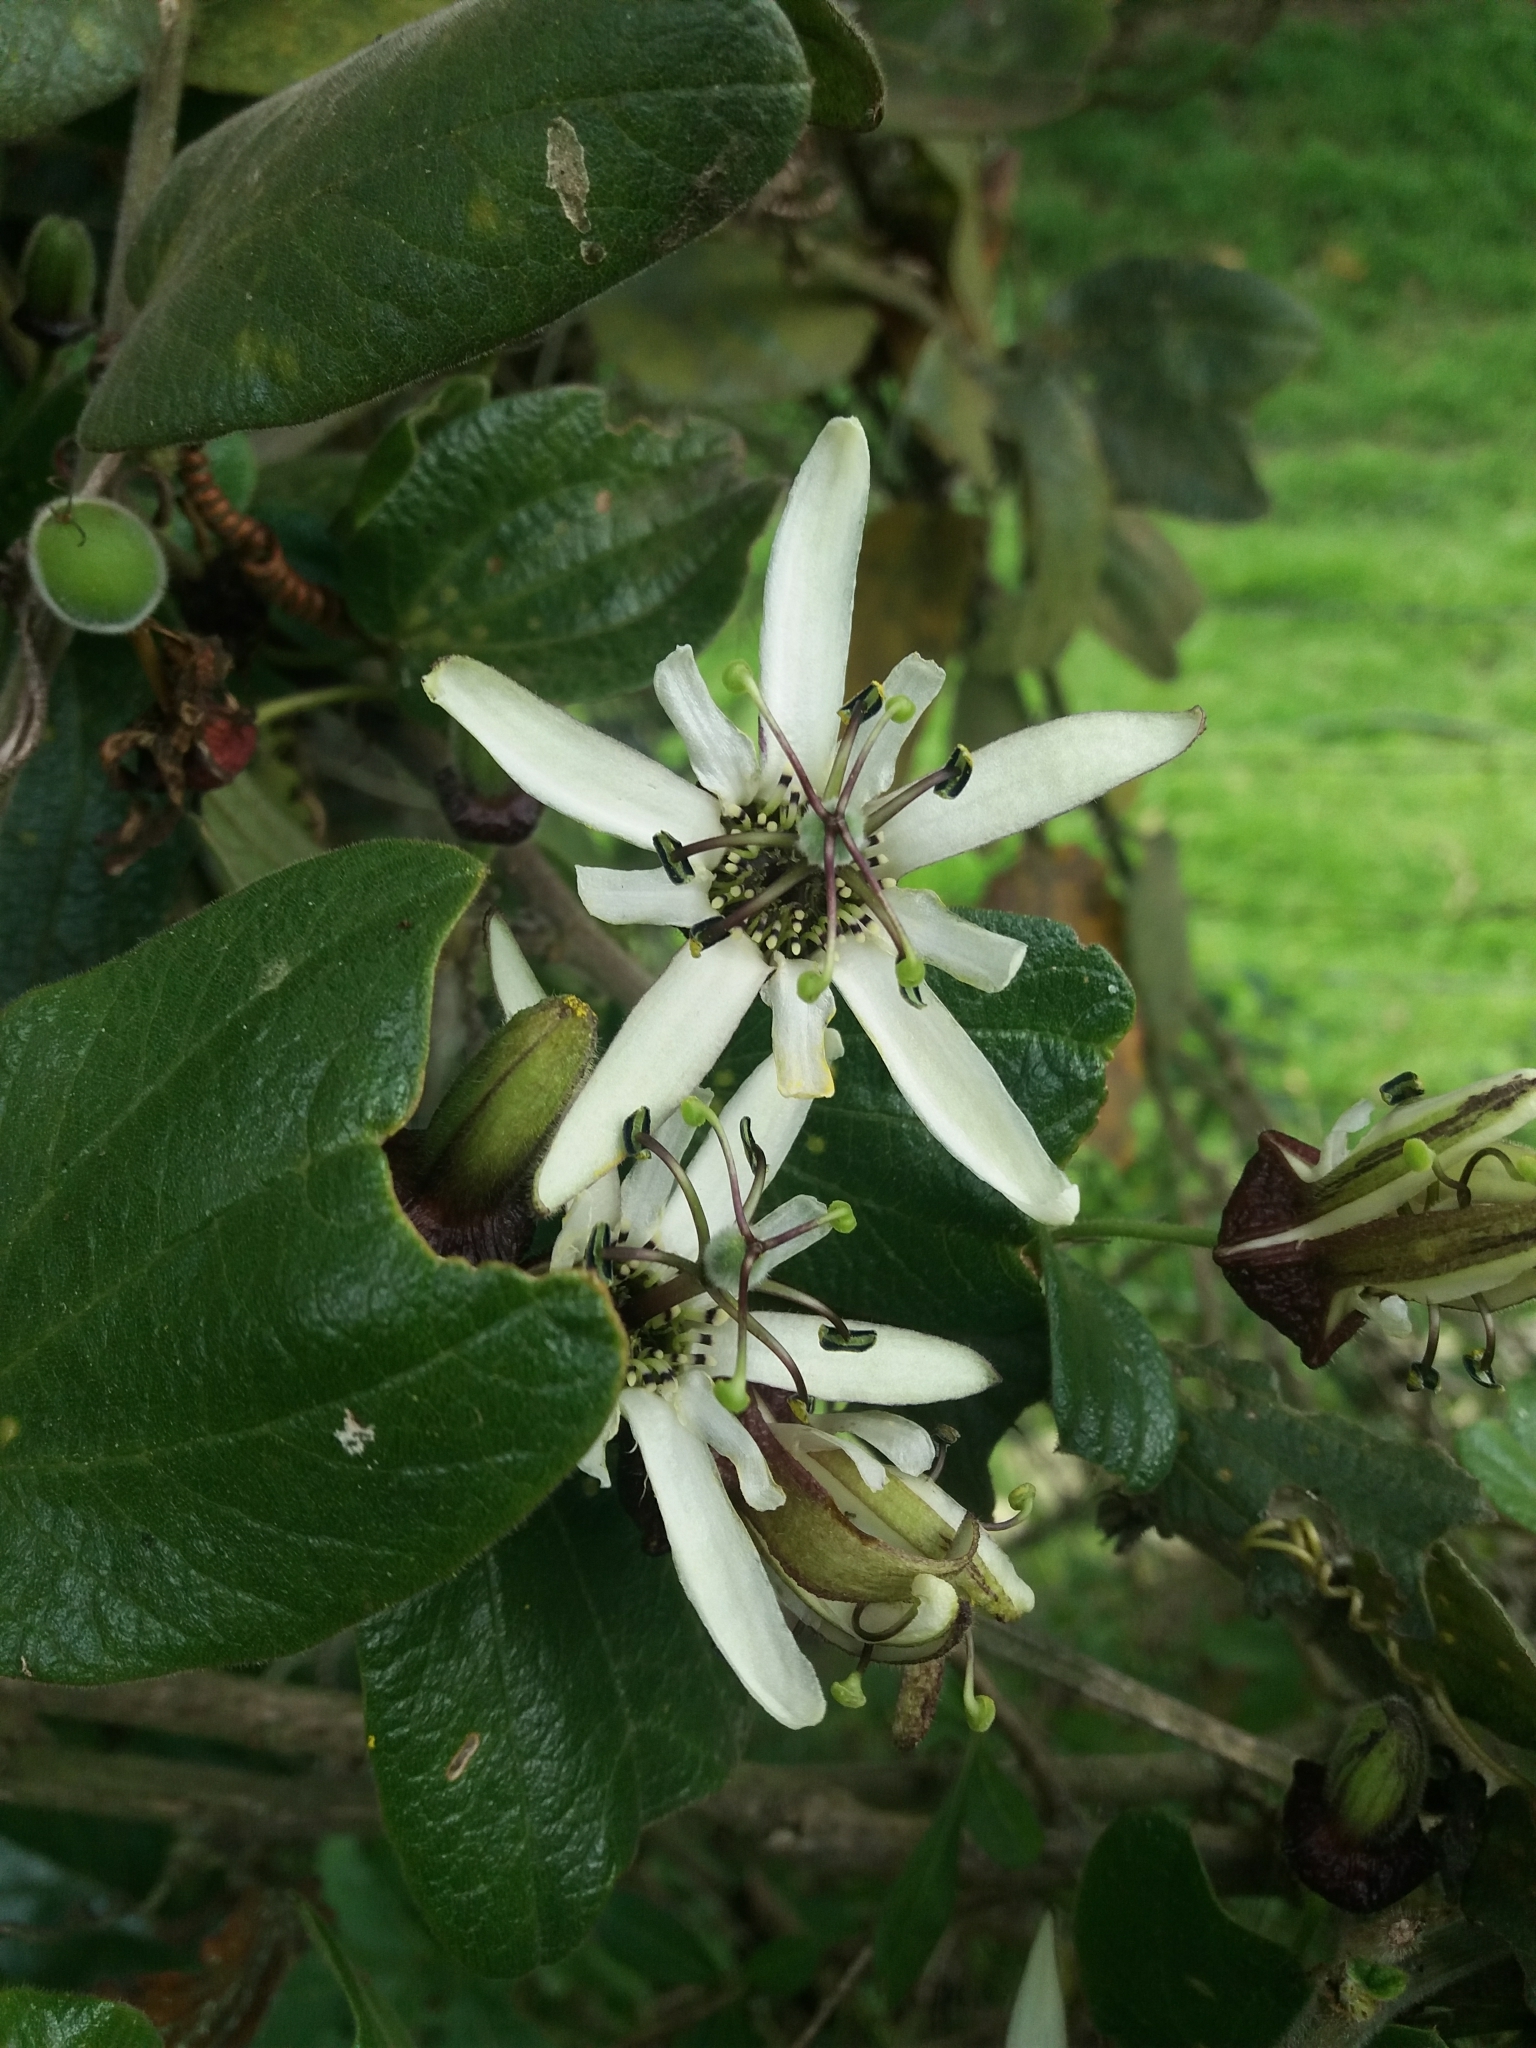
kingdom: Plantae
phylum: Tracheophyta
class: Magnoliopsida
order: Malpighiales
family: Passifloraceae
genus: Passiflora
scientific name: Passiflora bogotensis
